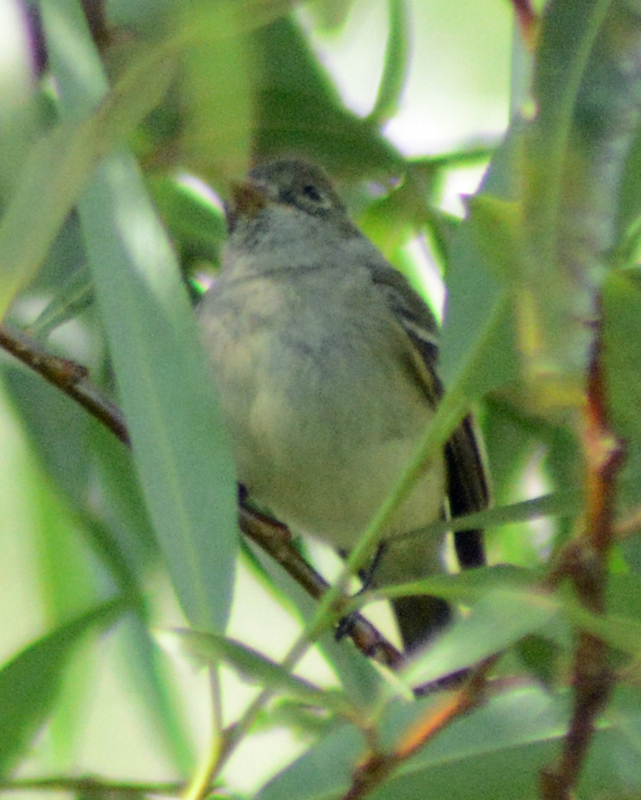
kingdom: Animalia
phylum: Chordata
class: Aves
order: Passeriformes
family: Tyrannidae
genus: Empidonax
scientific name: Empidonax oberholseri
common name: Dusky flycatcher
